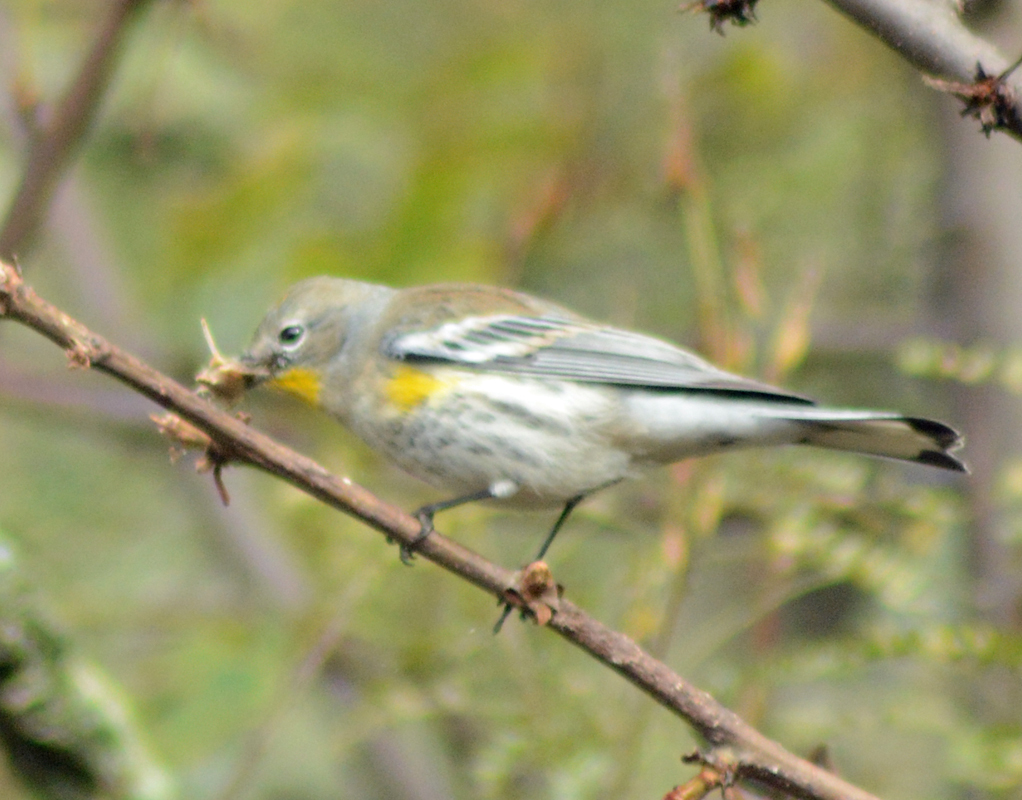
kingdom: Animalia
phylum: Chordata
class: Aves
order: Passeriformes
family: Parulidae
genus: Setophaga
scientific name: Setophaga coronata
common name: Myrtle warbler
